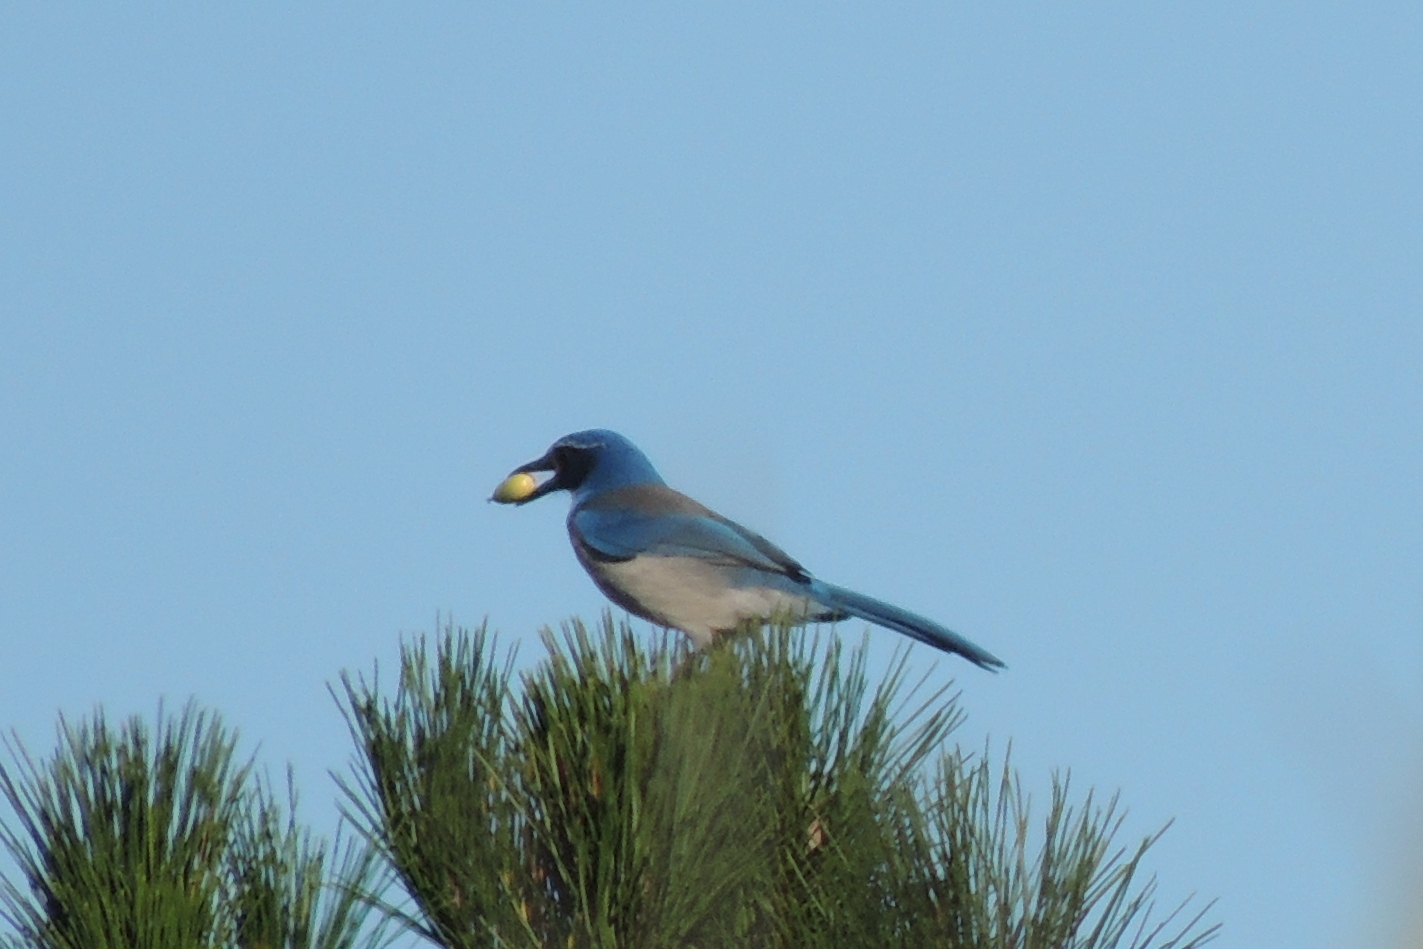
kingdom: Animalia
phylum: Chordata
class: Aves
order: Passeriformes
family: Corvidae
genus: Aphelocoma
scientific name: Aphelocoma californica
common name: California scrub-jay
